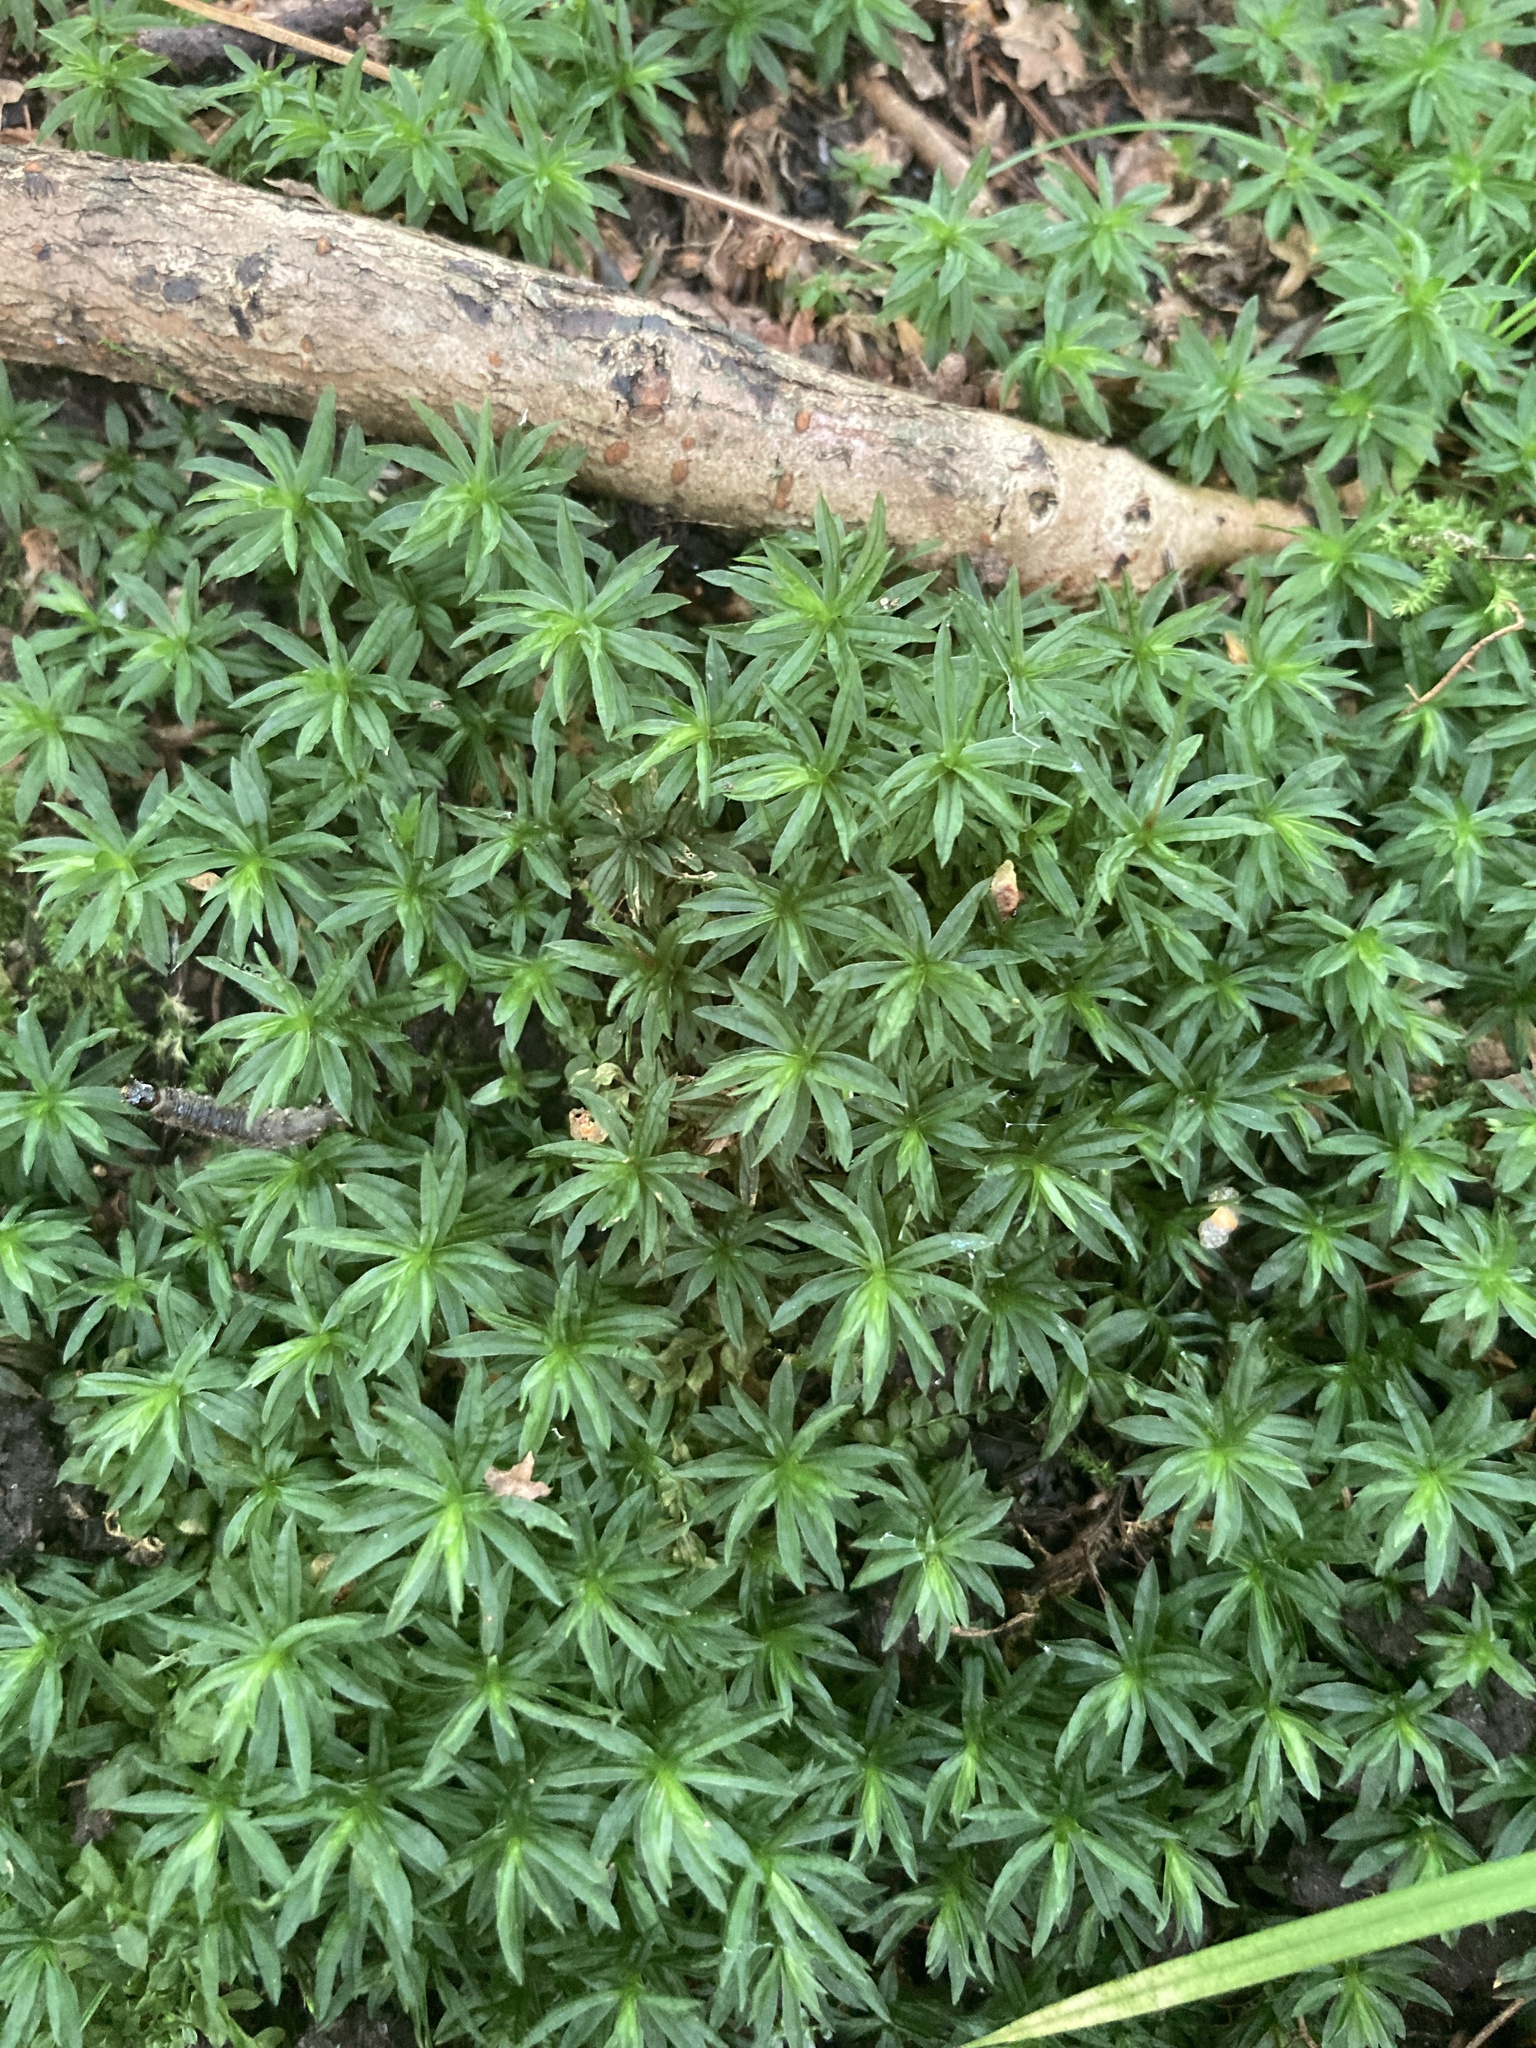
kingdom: Plantae
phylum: Bryophyta
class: Polytrichopsida
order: Polytrichales
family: Polytrichaceae
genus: Atrichum
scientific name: Atrichum undulatum
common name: Common smoothcap
